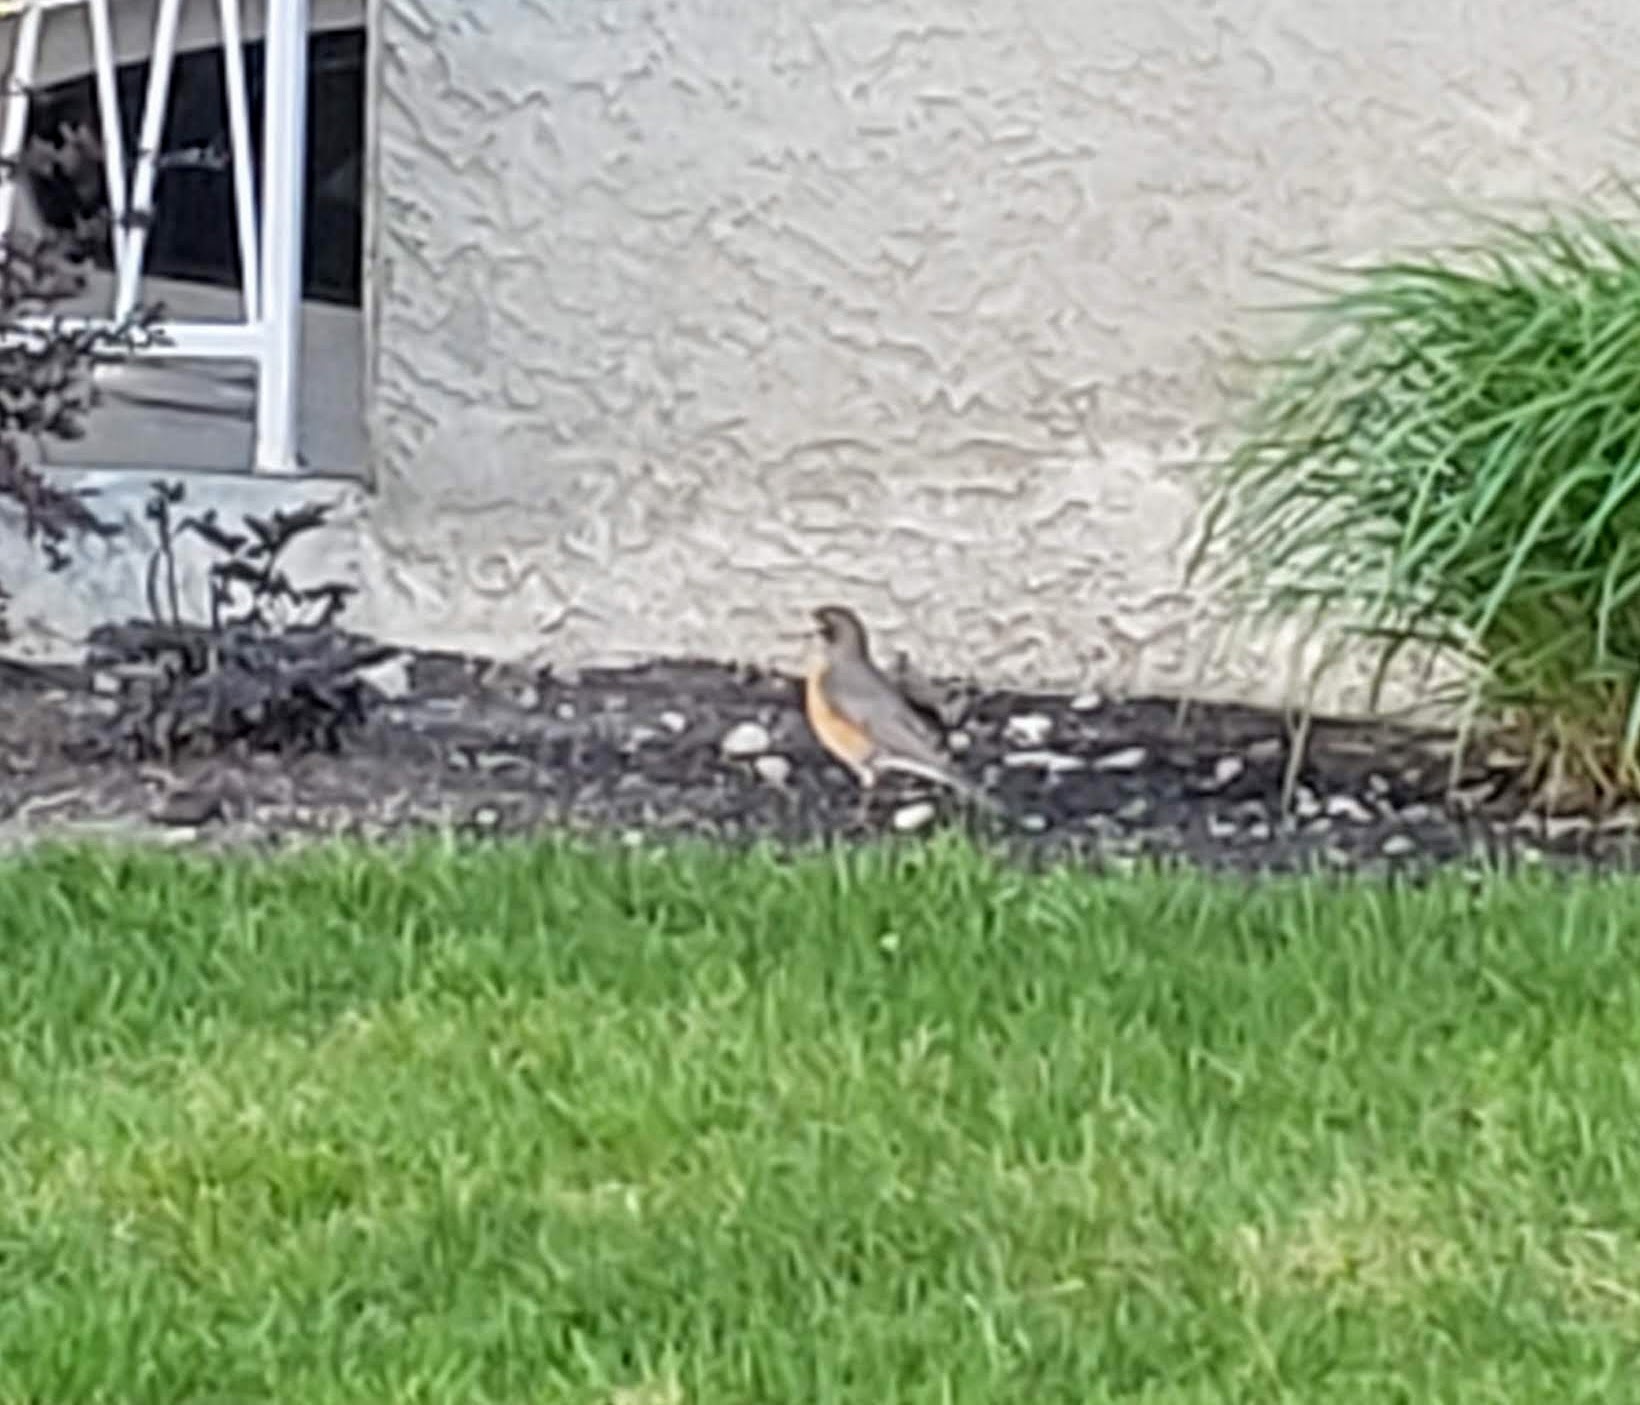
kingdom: Animalia
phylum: Chordata
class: Aves
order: Passeriformes
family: Turdidae
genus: Turdus
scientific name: Turdus migratorius
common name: American robin
